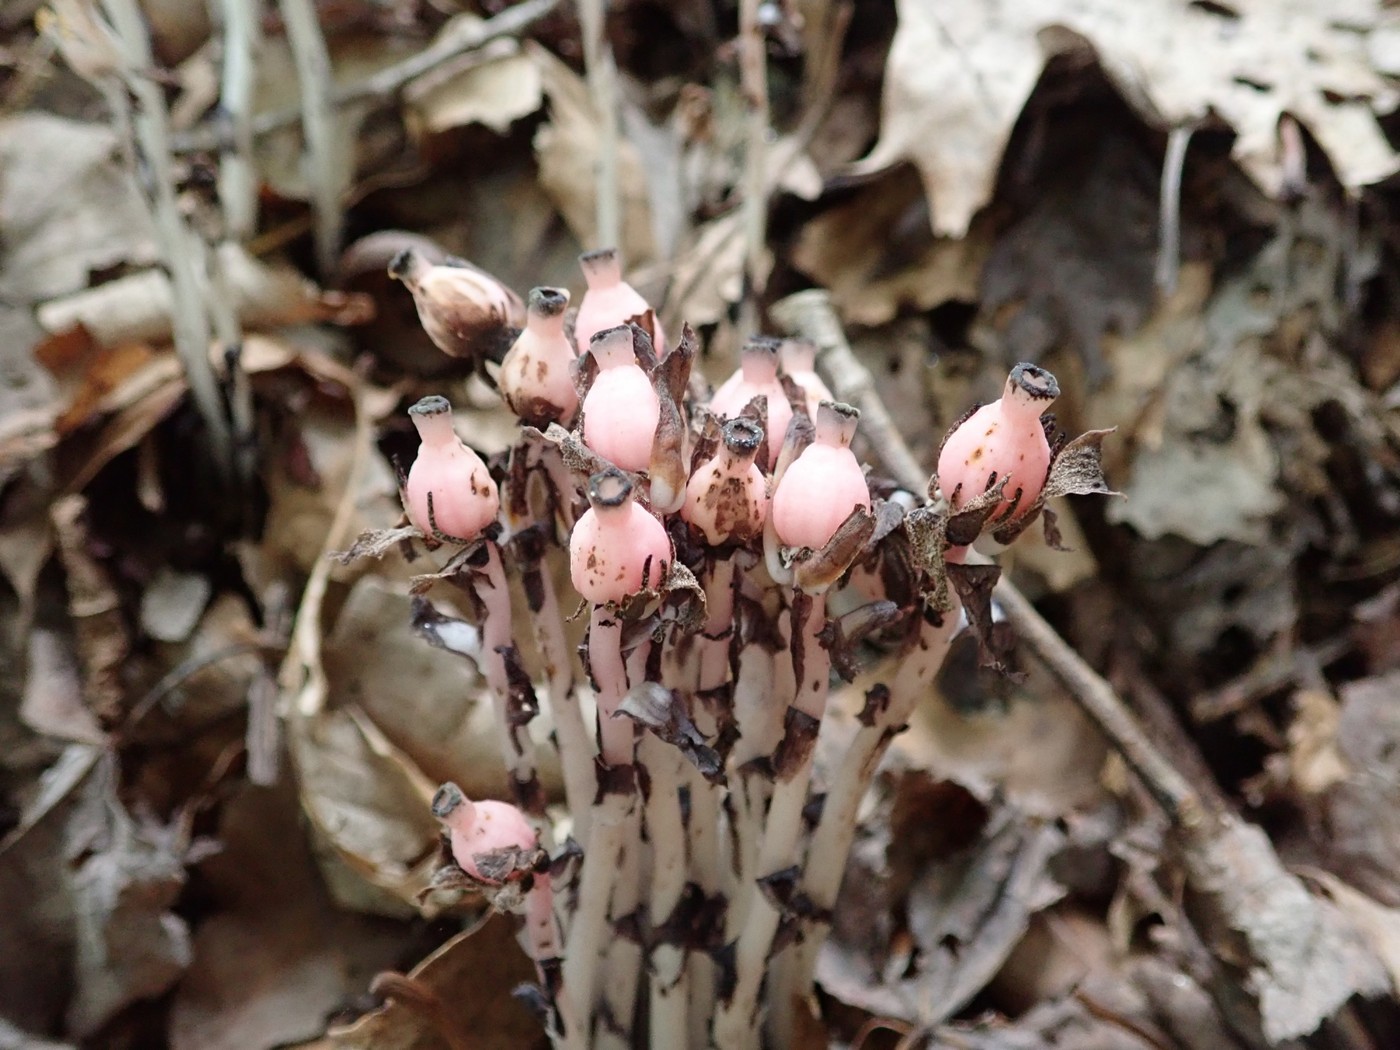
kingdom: Plantae
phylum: Tracheophyta
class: Magnoliopsida
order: Ericales
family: Ericaceae
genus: Monotropa
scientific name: Monotropa uniflora
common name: Convulsion root
